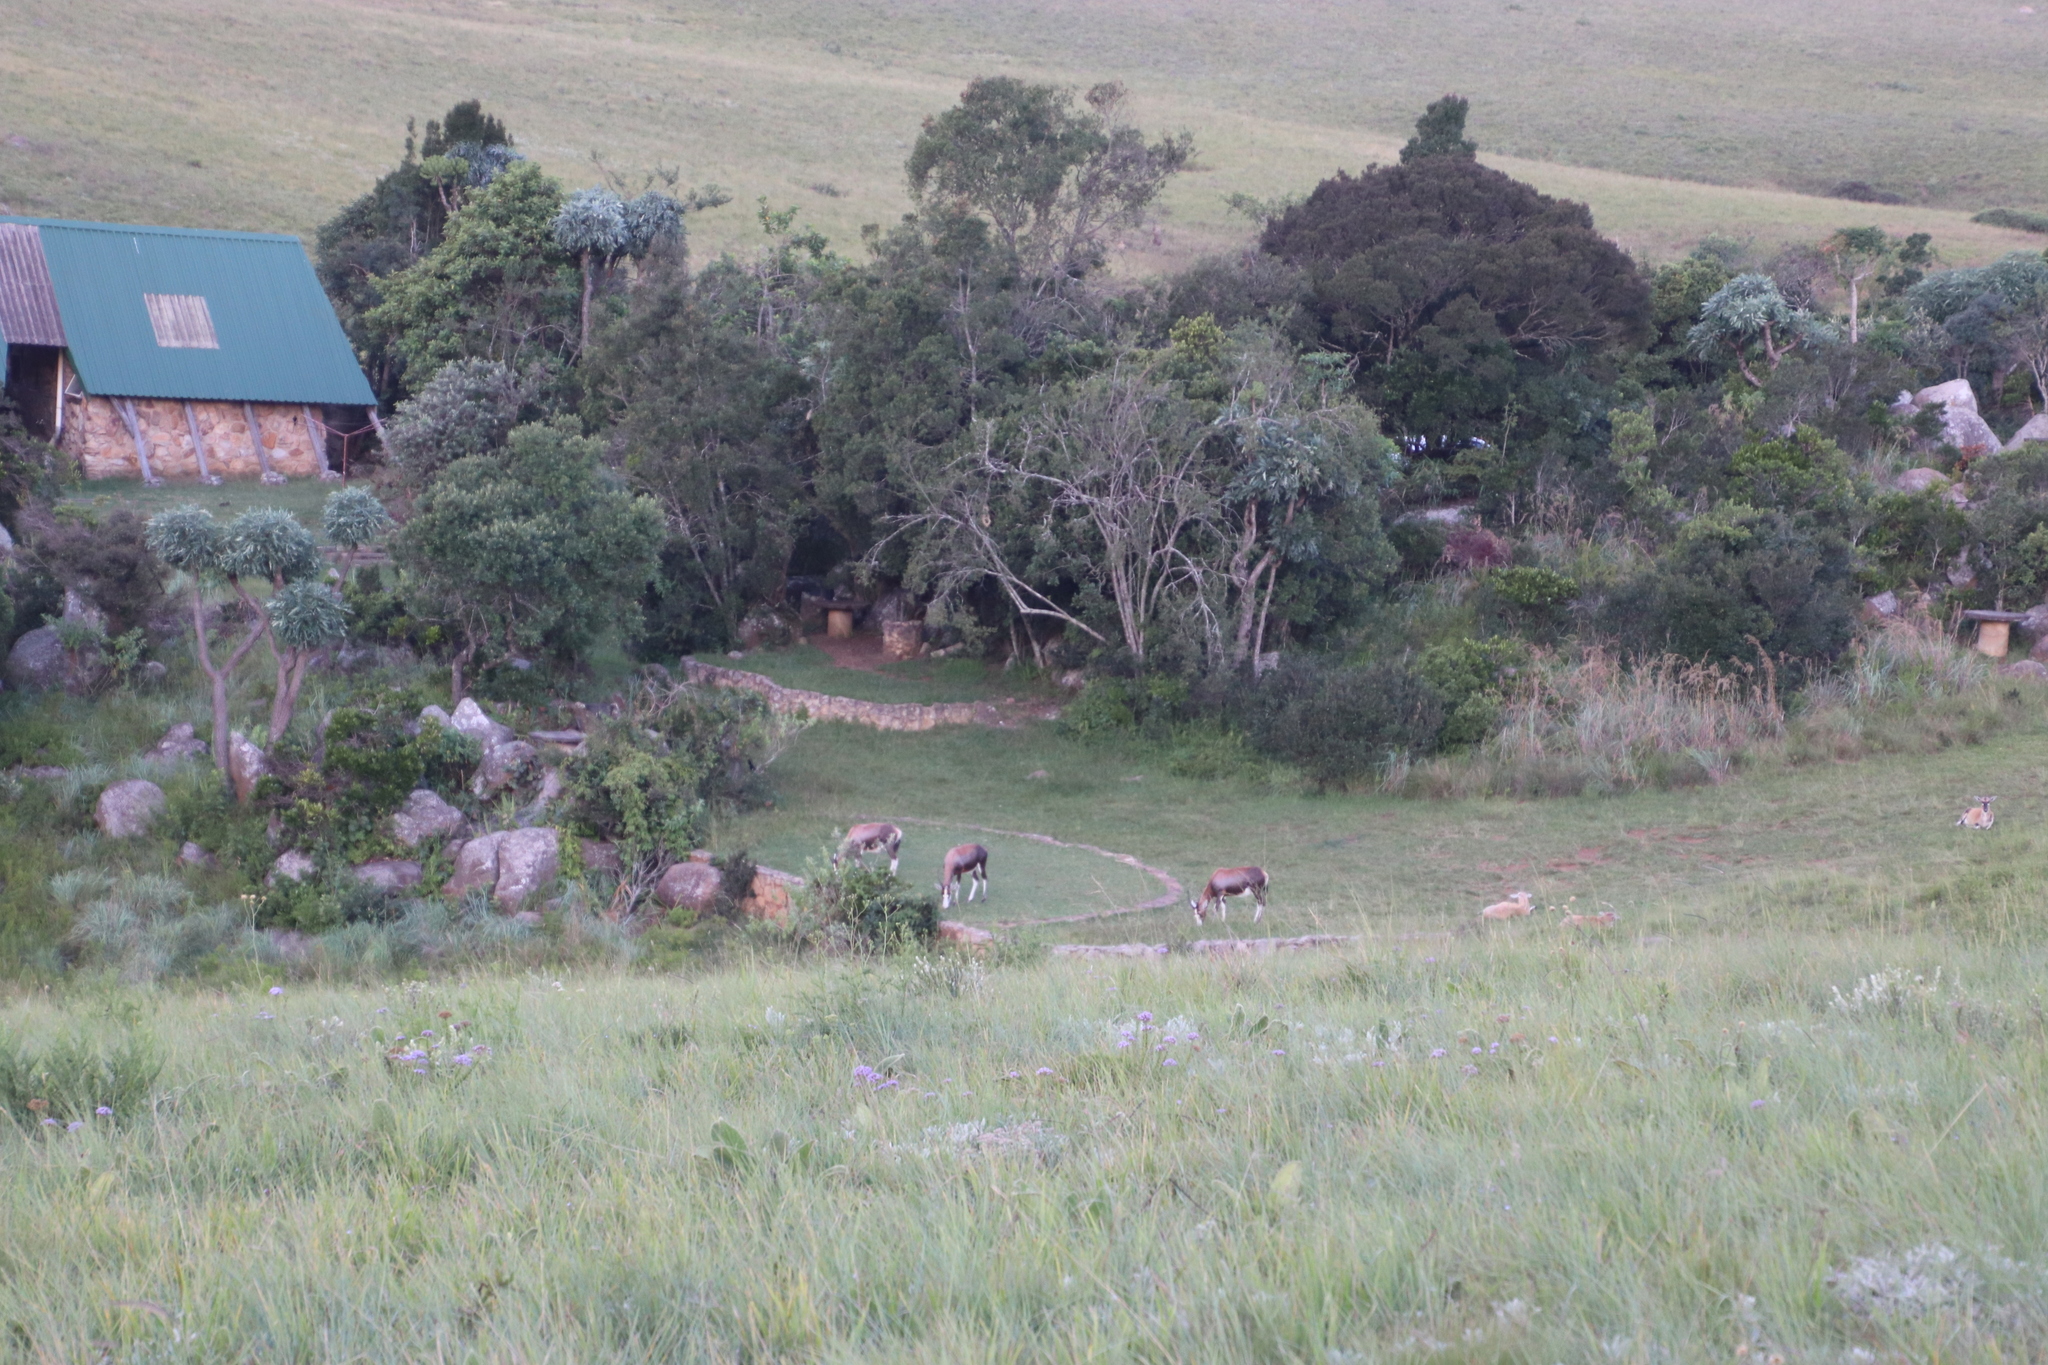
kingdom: Animalia
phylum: Chordata
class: Mammalia
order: Artiodactyla
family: Bovidae
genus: Damaliscus
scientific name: Damaliscus pygargus
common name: Bontebok
